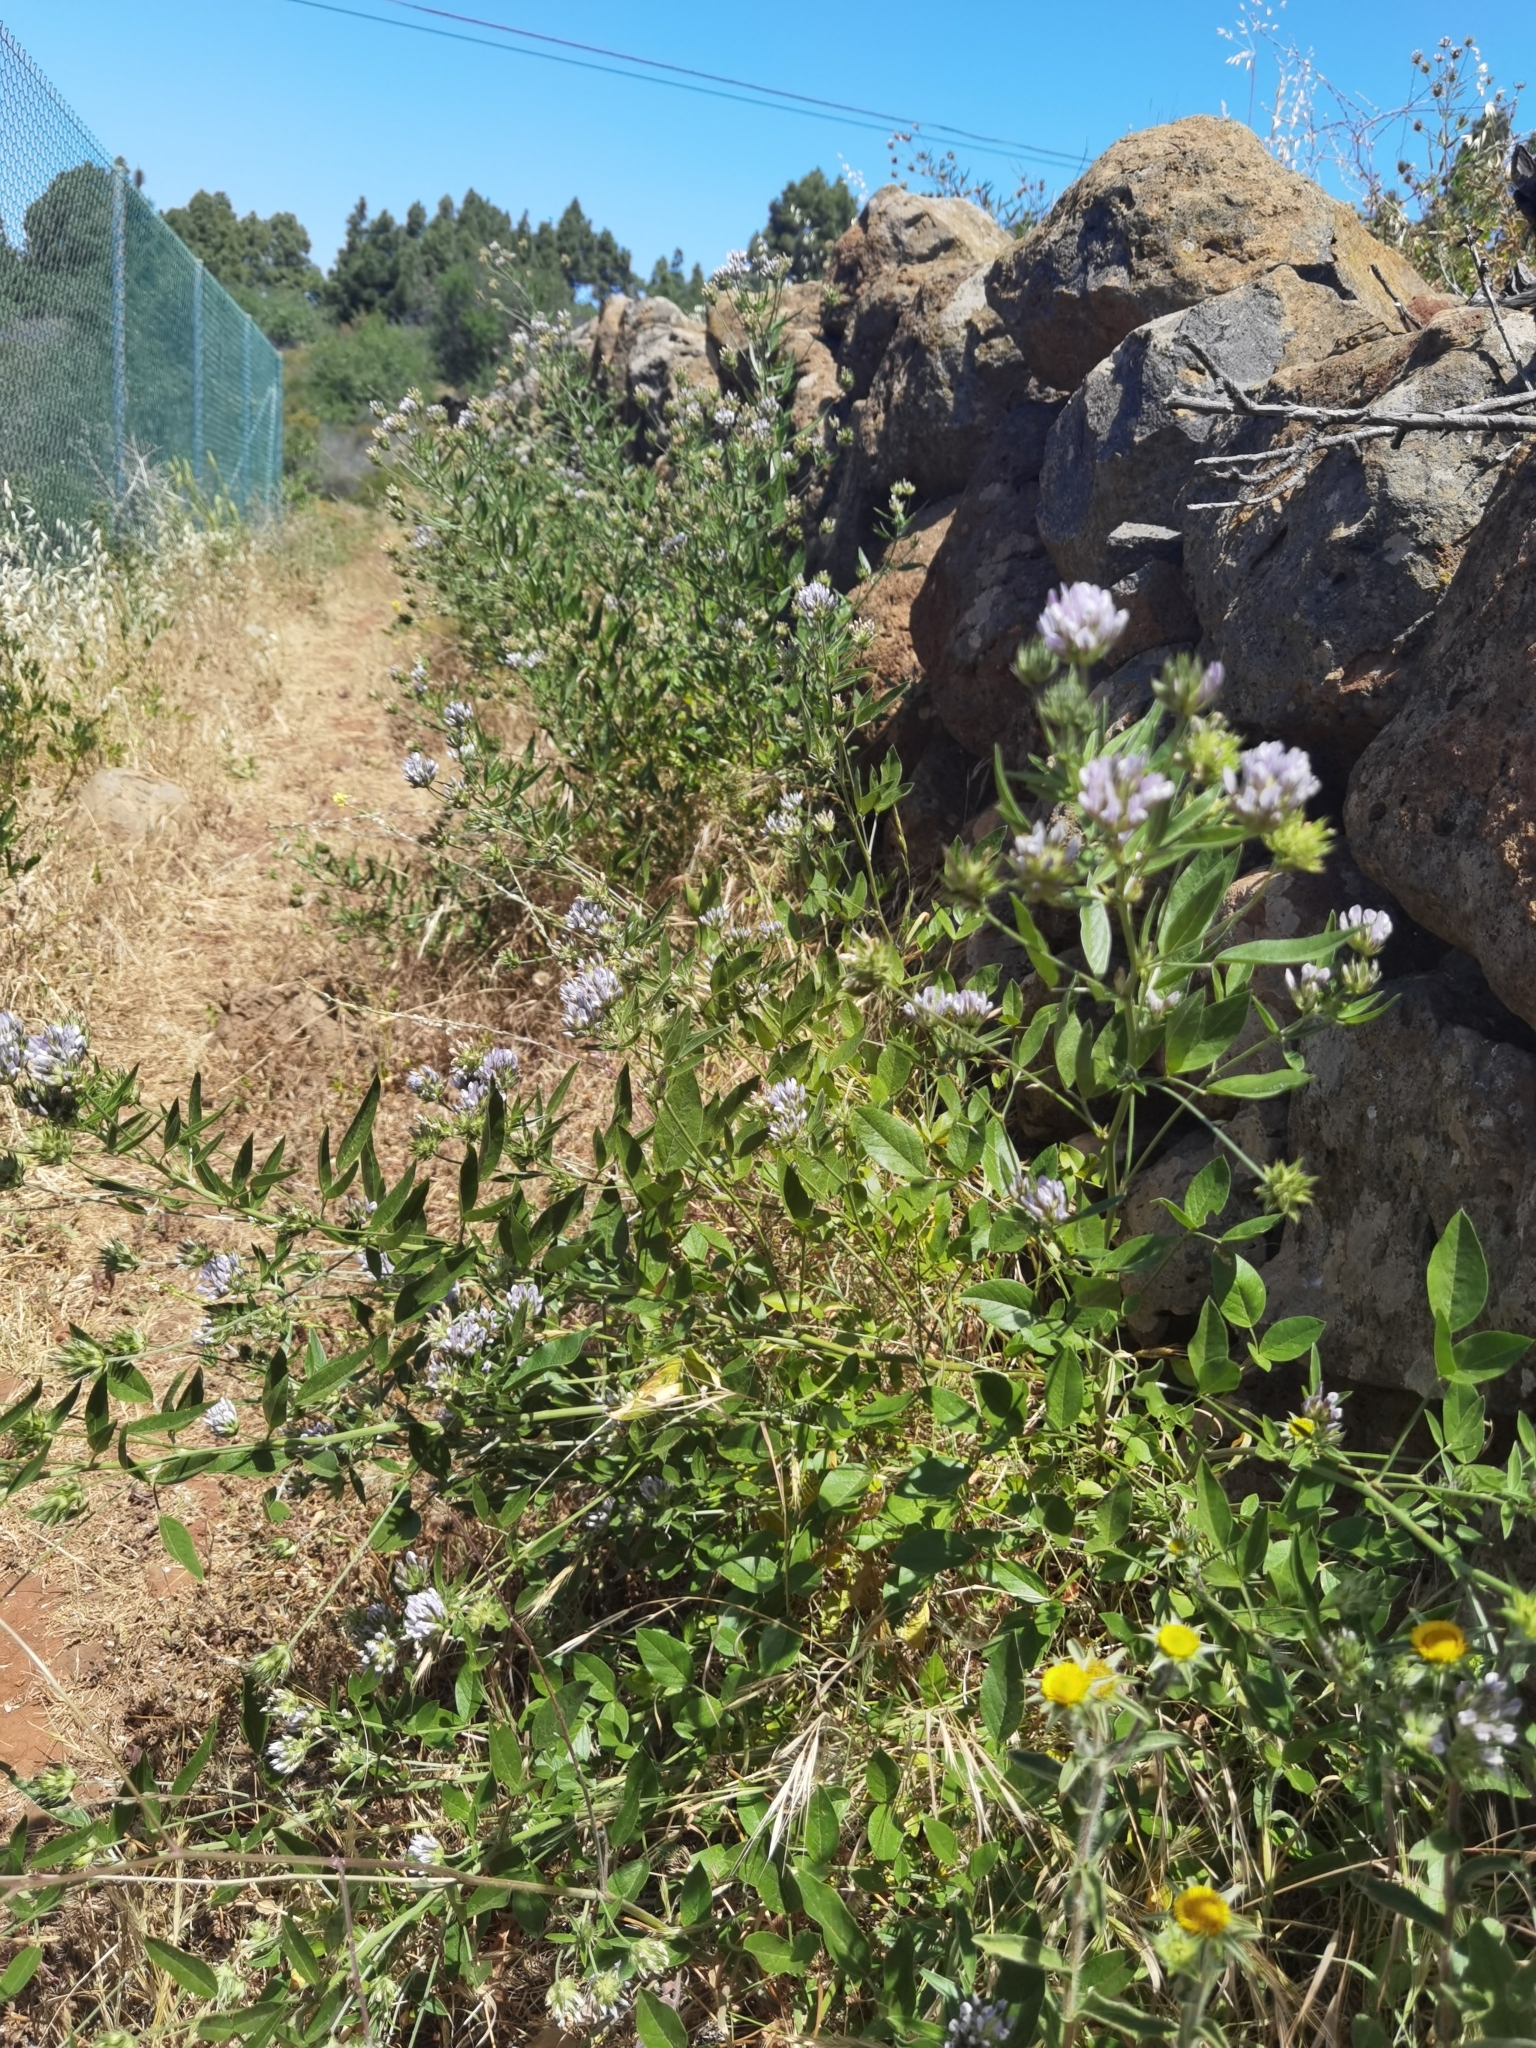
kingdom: Plantae
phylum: Tracheophyta
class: Magnoliopsida
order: Fabales
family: Fabaceae
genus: Bituminaria
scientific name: Bituminaria bituminosa
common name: Arabian pea
